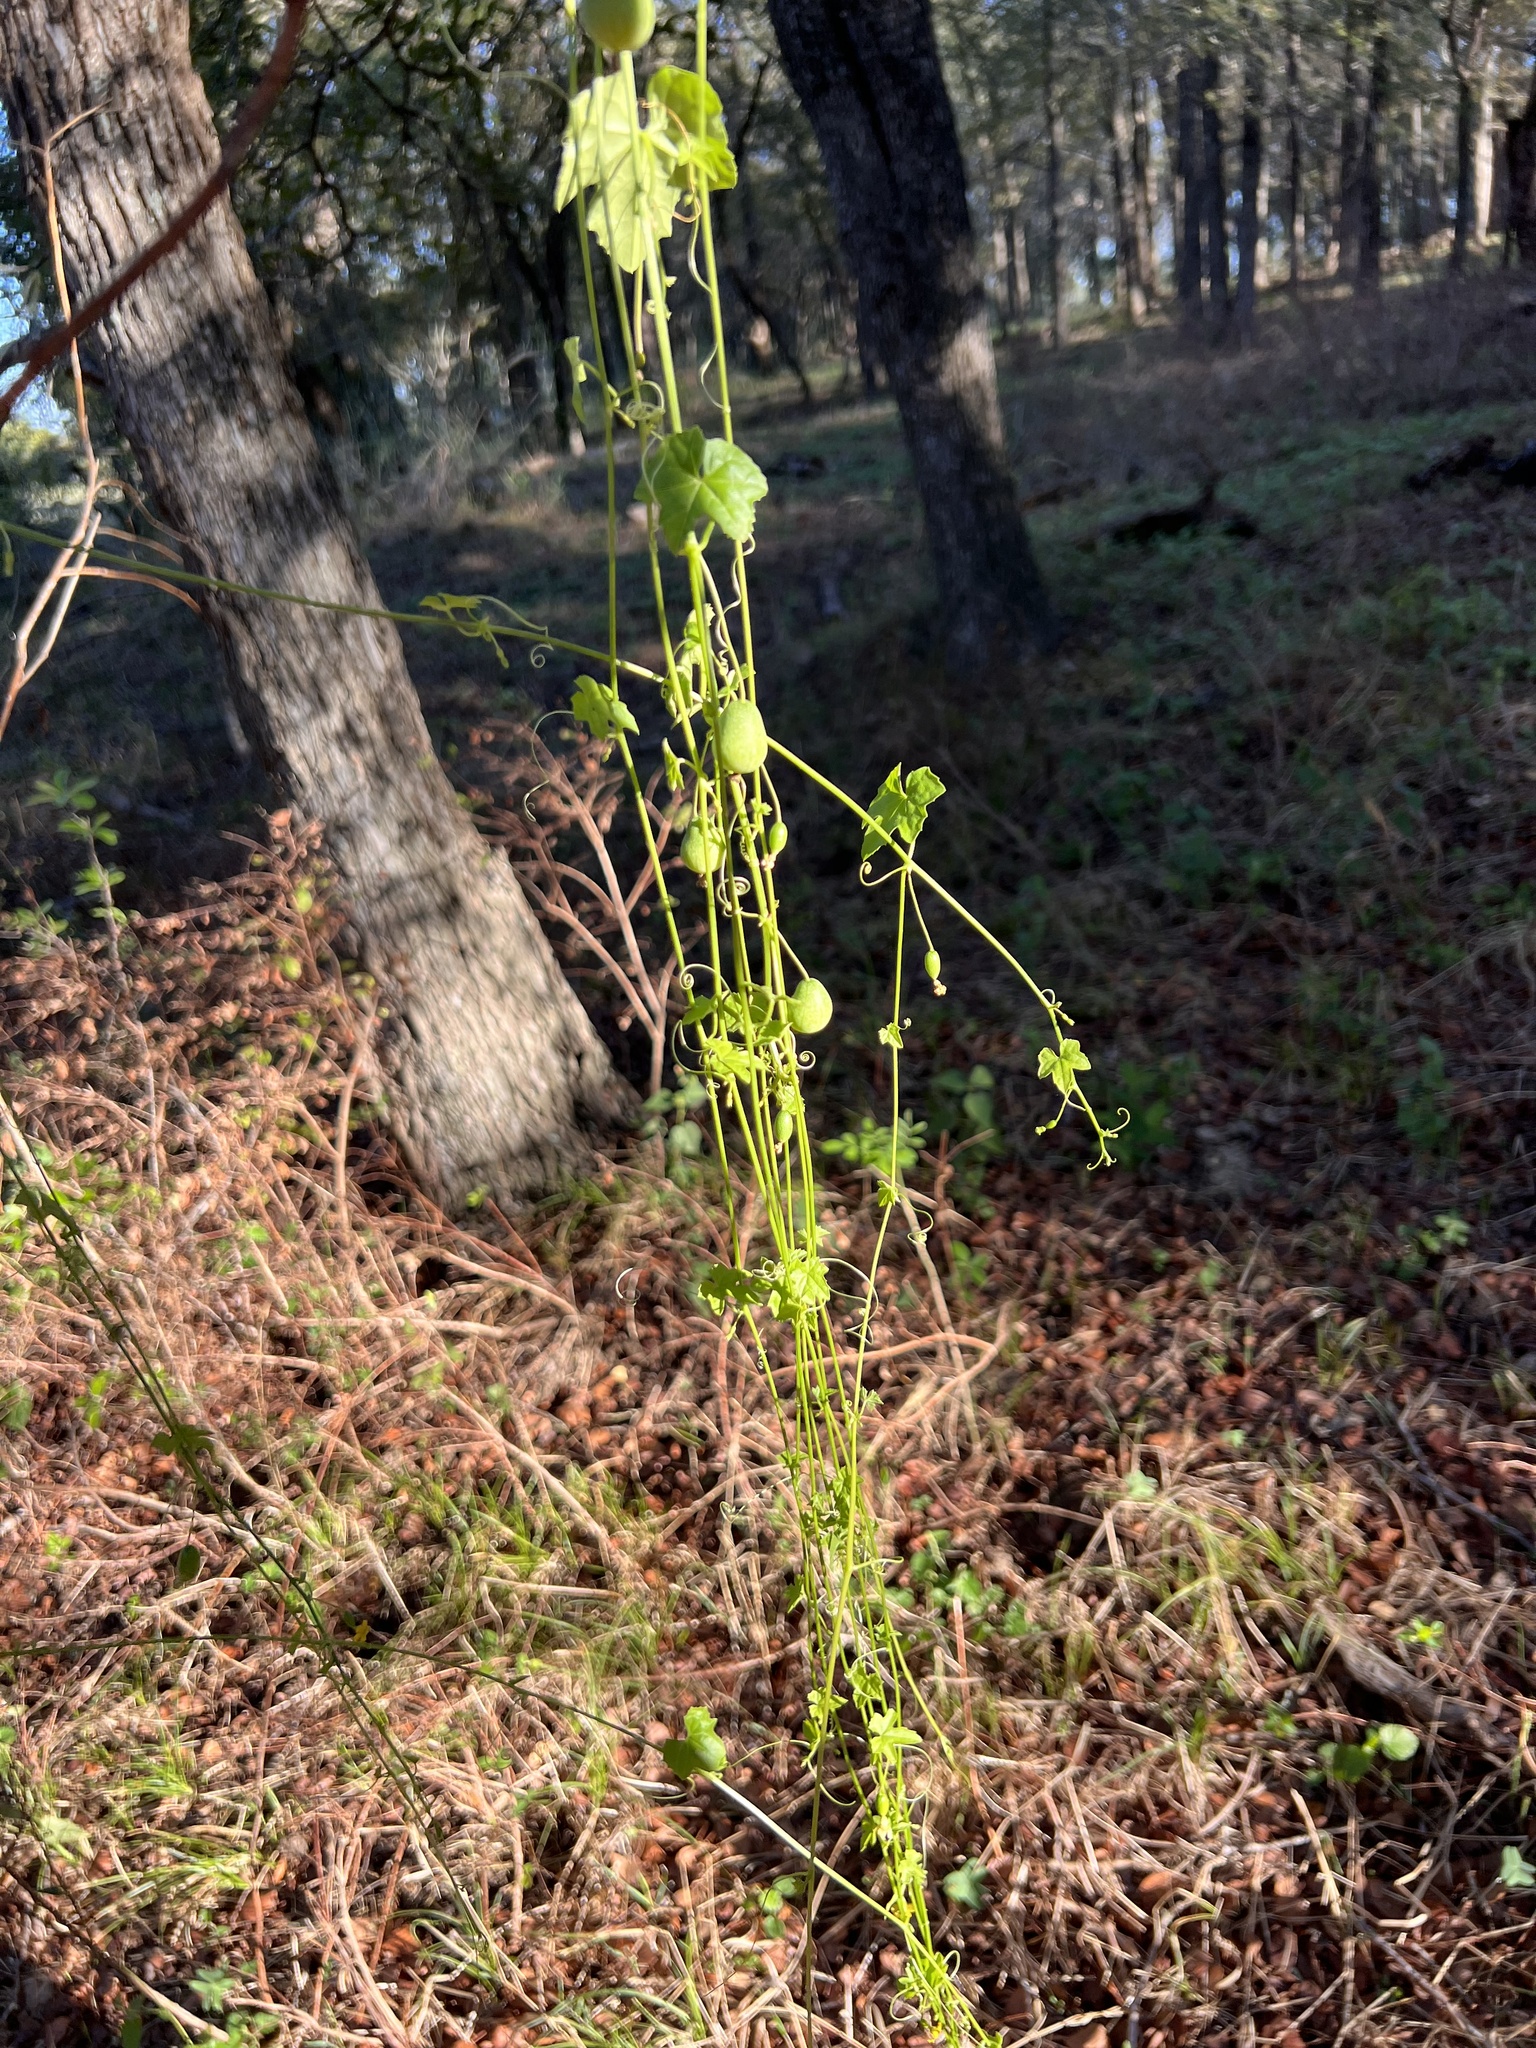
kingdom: Plantae
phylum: Tracheophyta
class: Magnoliopsida
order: Cucurbitales
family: Cucurbitaceae
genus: Melothria
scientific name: Melothria pendula
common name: Creeping-cucumber
